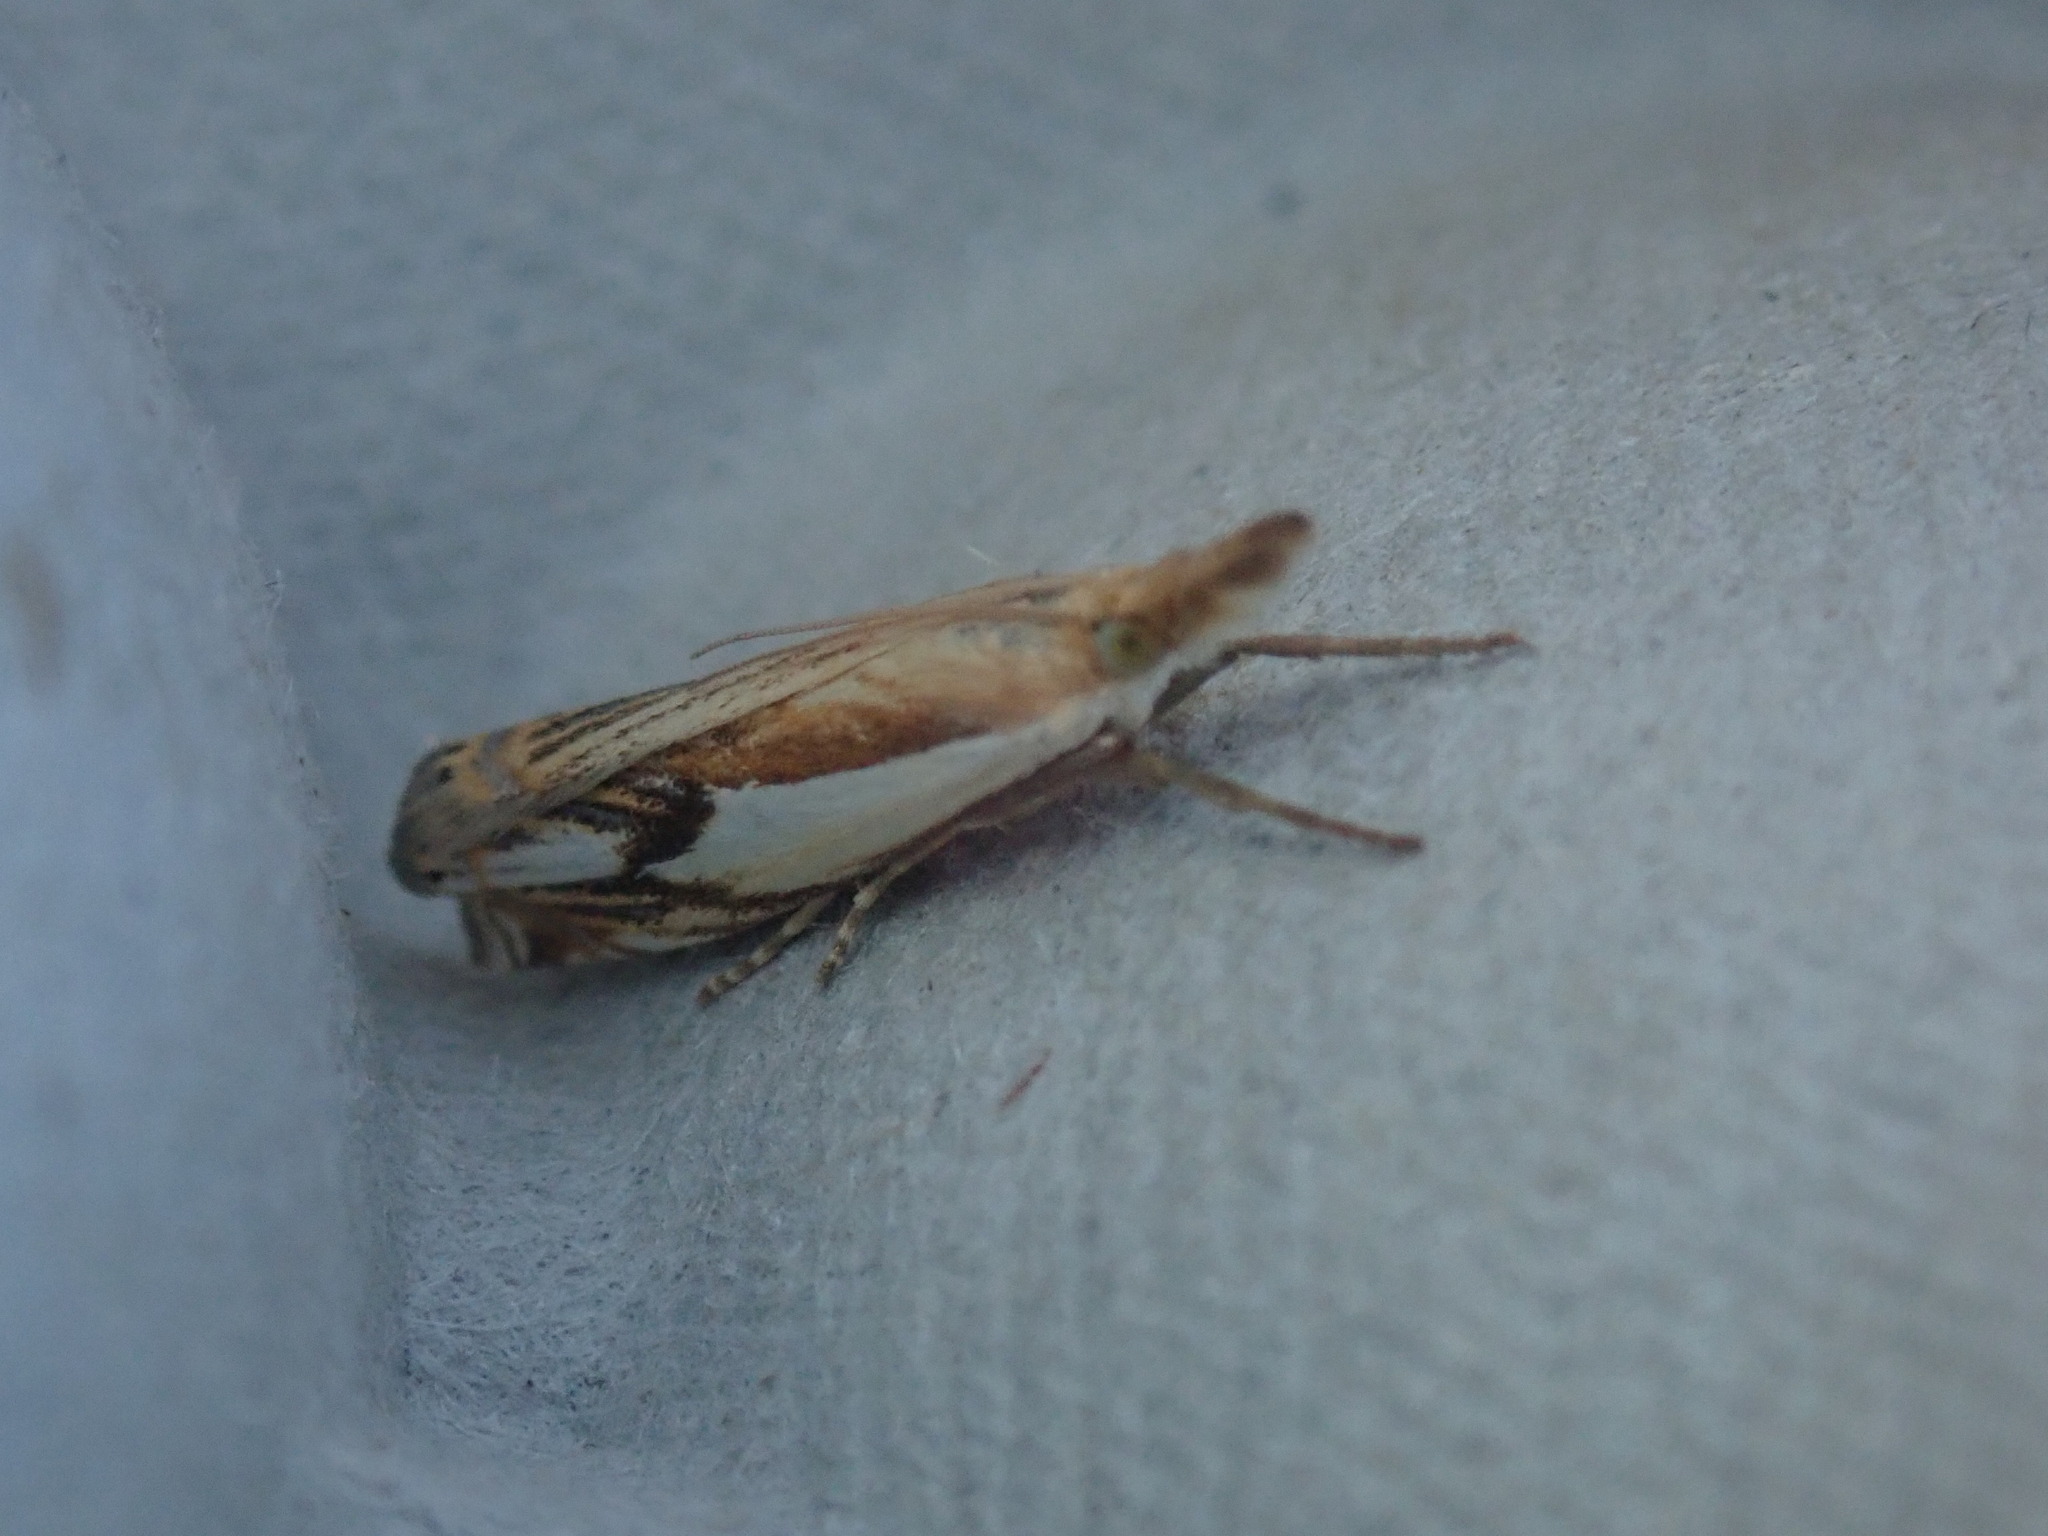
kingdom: Animalia
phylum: Arthropoda
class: Insecta
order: Lepidoptera
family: Crambidae
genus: Crambus
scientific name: Crambus agitatellus
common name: Double-banded grass-veneer
